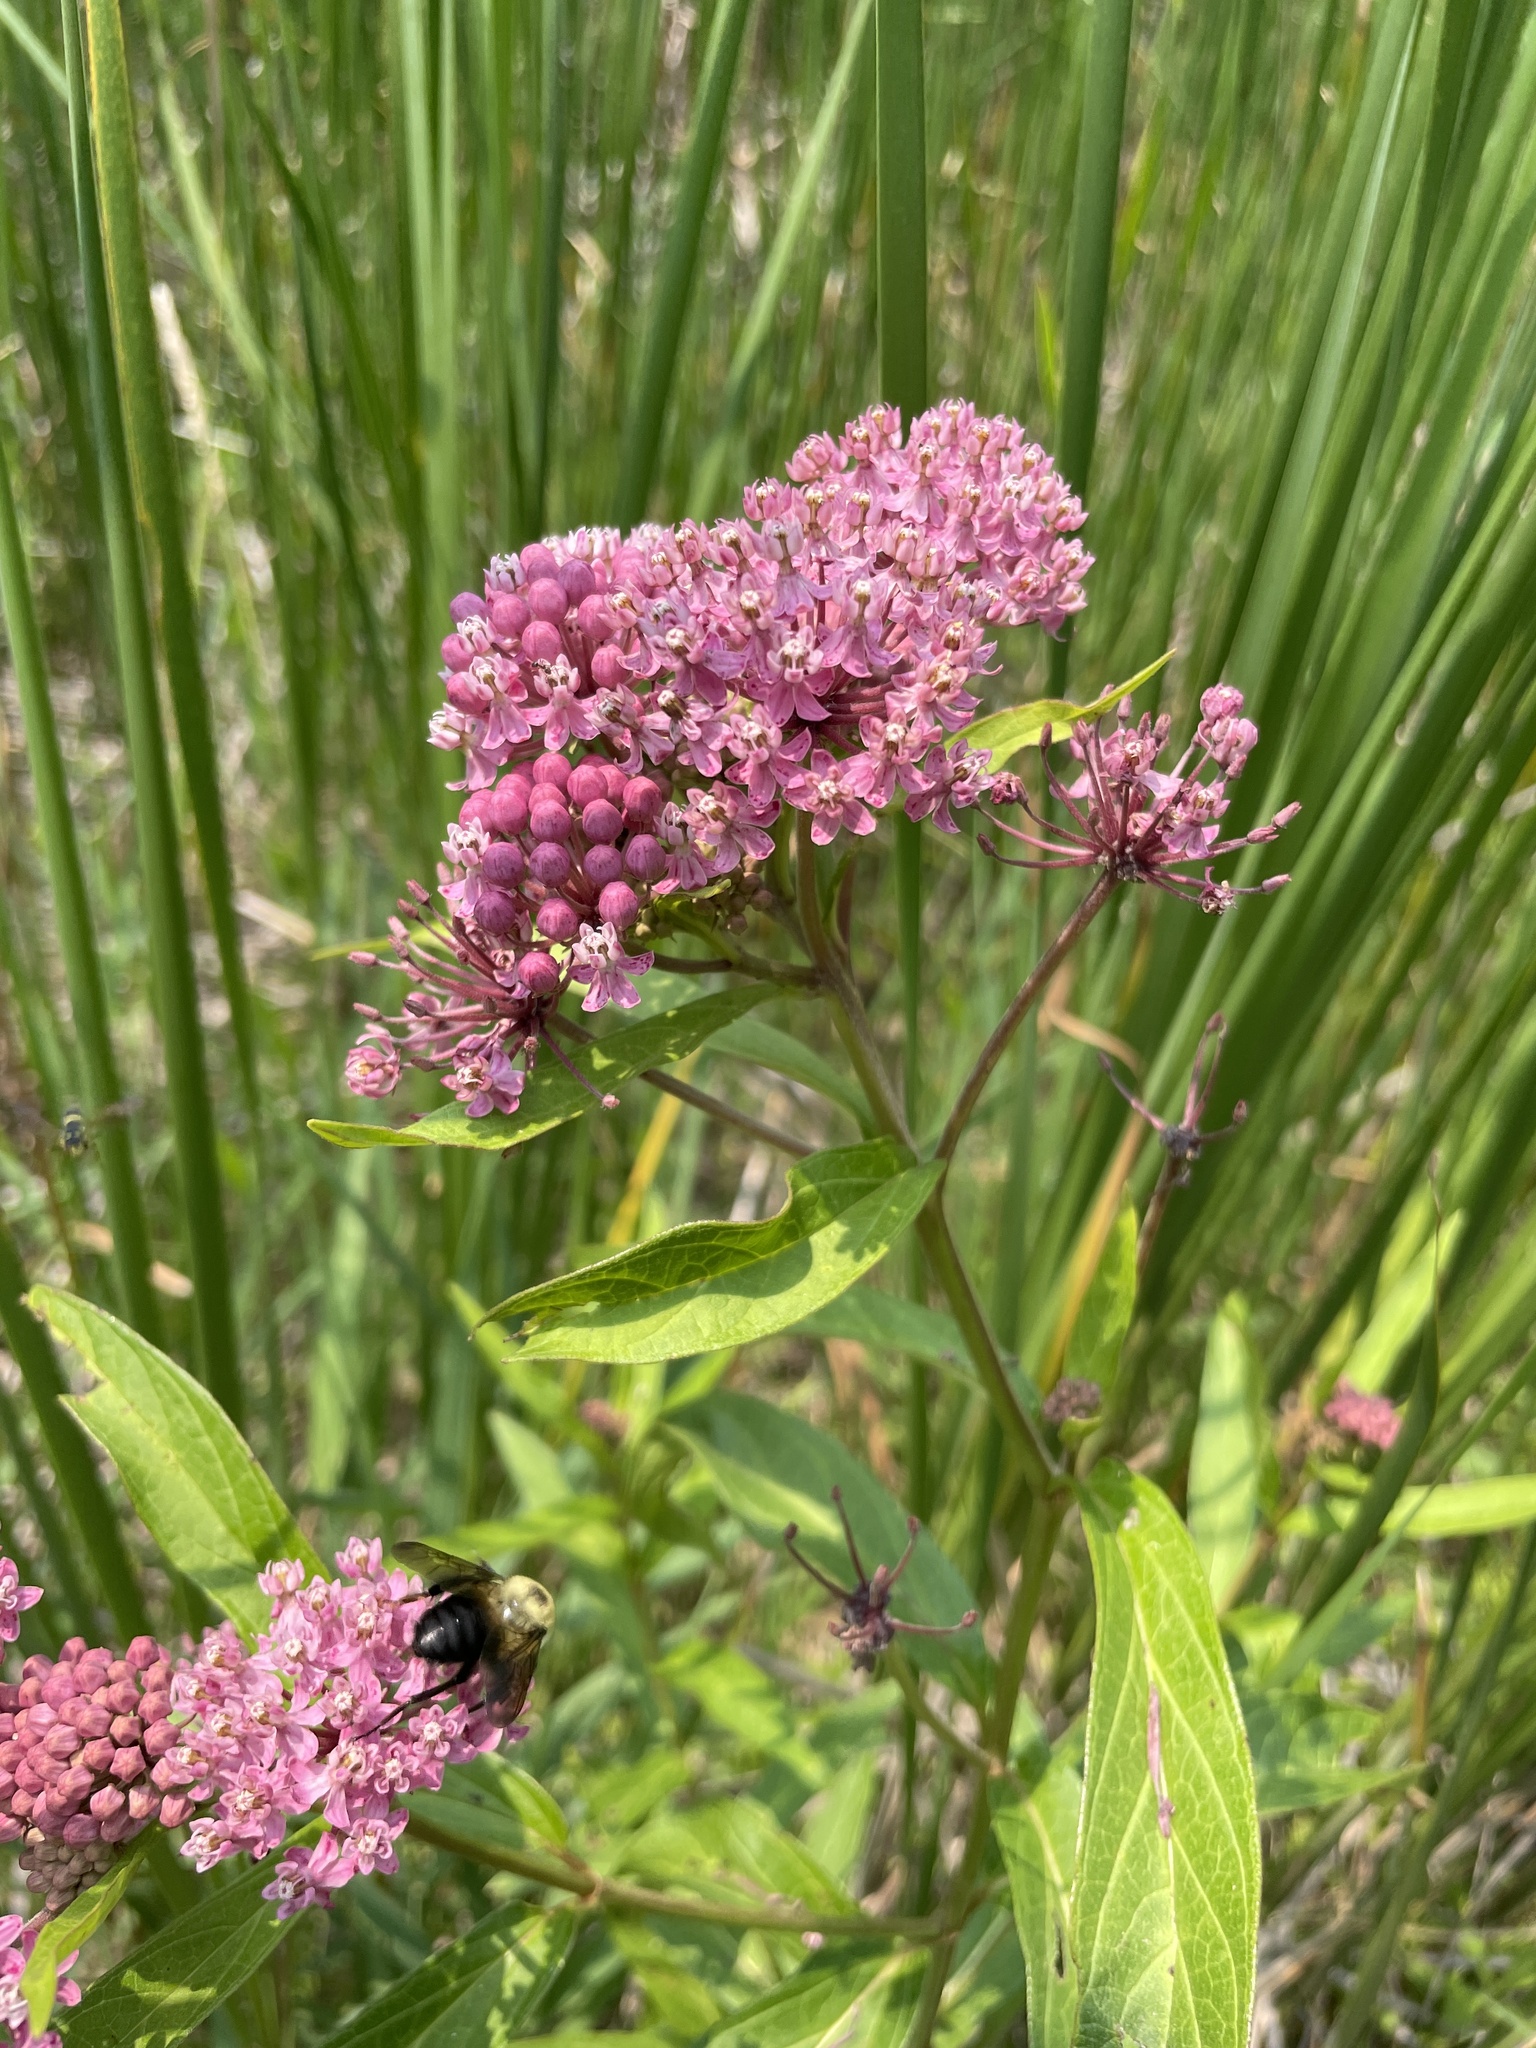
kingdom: Plantae
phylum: Tracheophyta
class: Magnoliopsida
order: Gentianales
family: Apocynaceae
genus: Asclepias
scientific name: Asclepias incarnata
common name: Swamp milkweed
